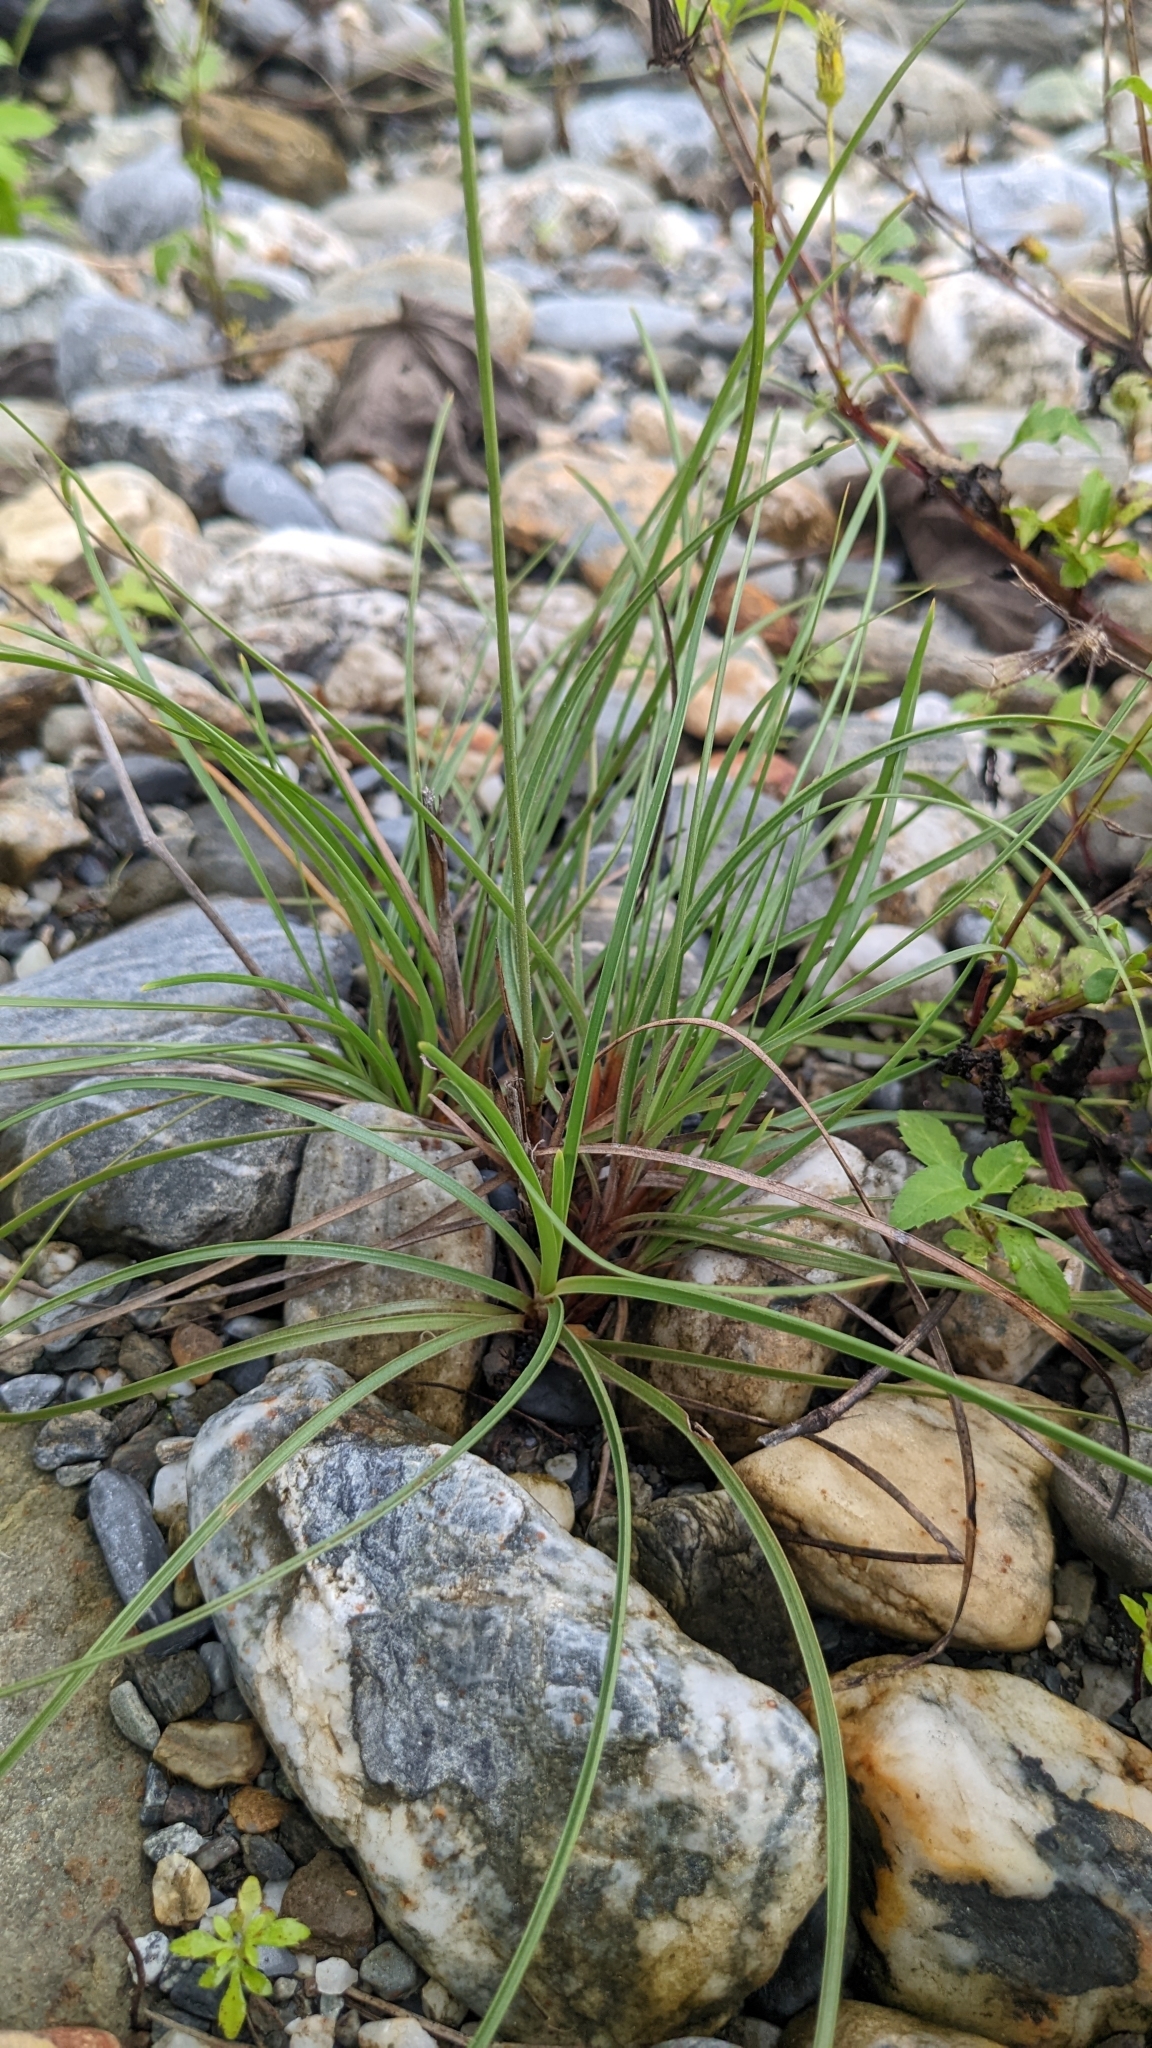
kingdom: Plantae
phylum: Tracheophyta
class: Liliopsida
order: Poales
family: Cyperaceae
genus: Fimbristylis
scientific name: Fimbristylis cymosa
